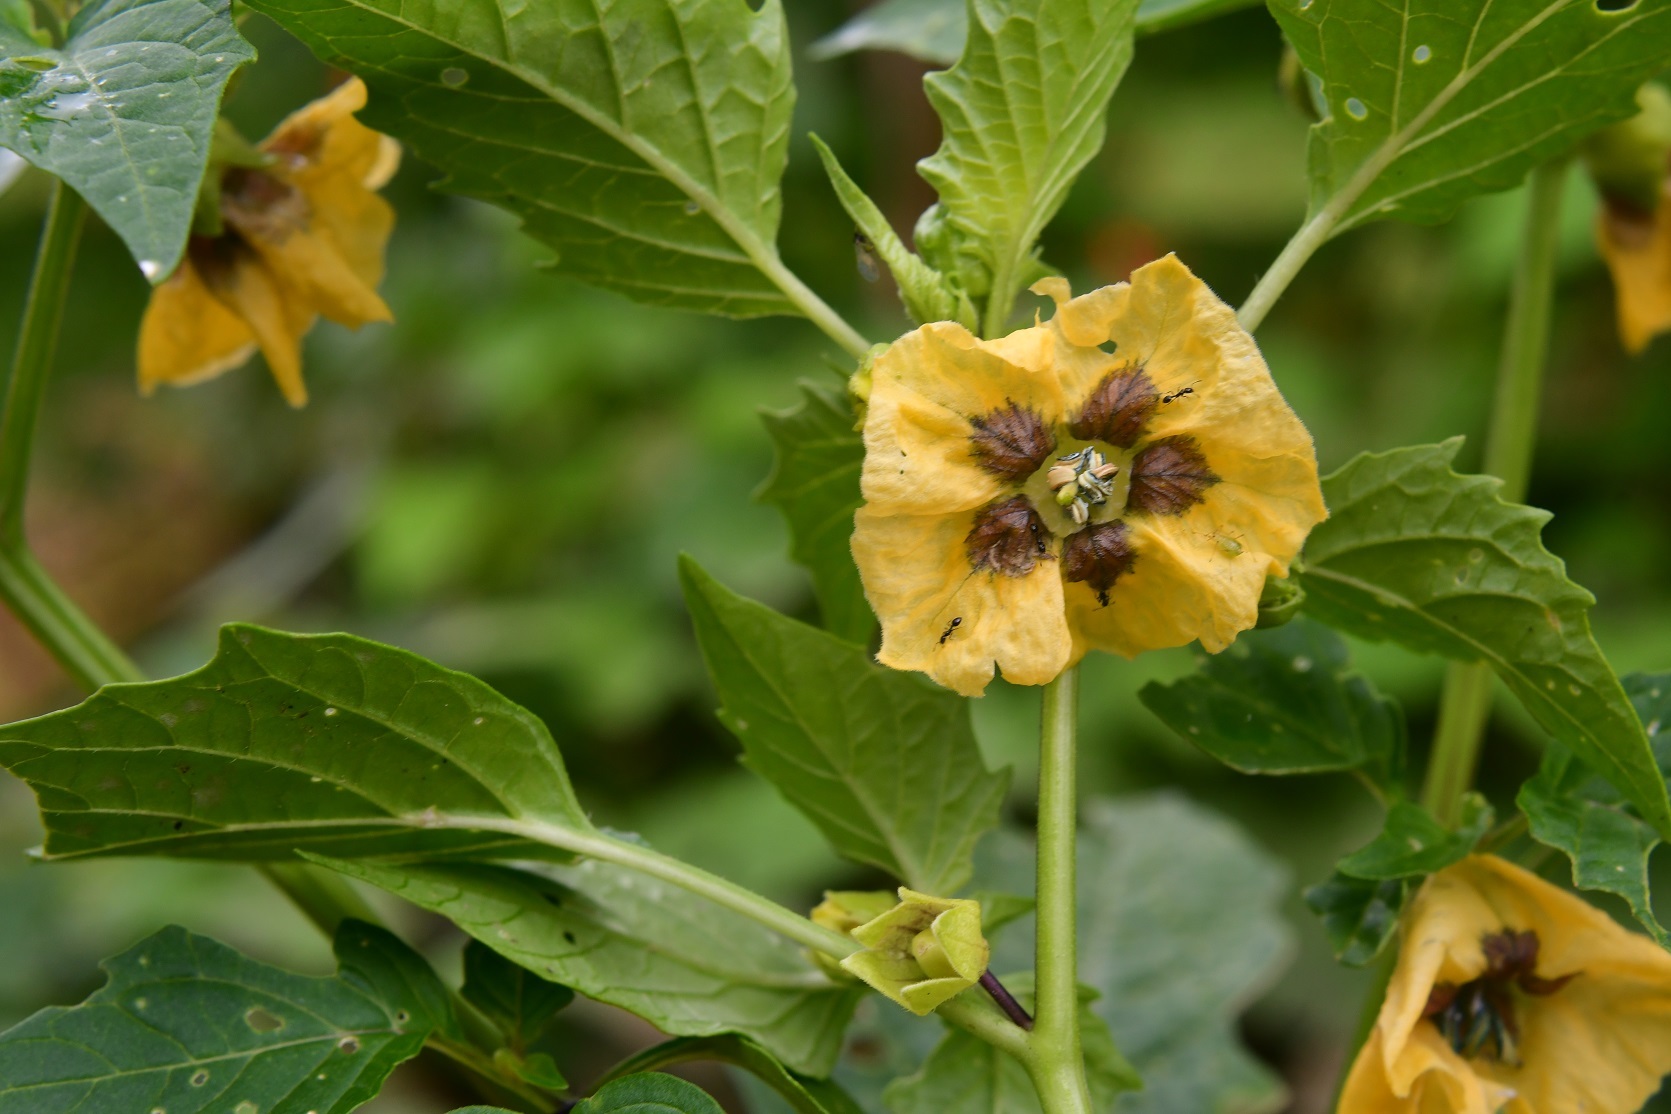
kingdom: Plantae
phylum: Tracheophyta
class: Magnoliopsida
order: Solanales
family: Solanaceae
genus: Physalis
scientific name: Physalis philadelphica
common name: Husk-tomato
